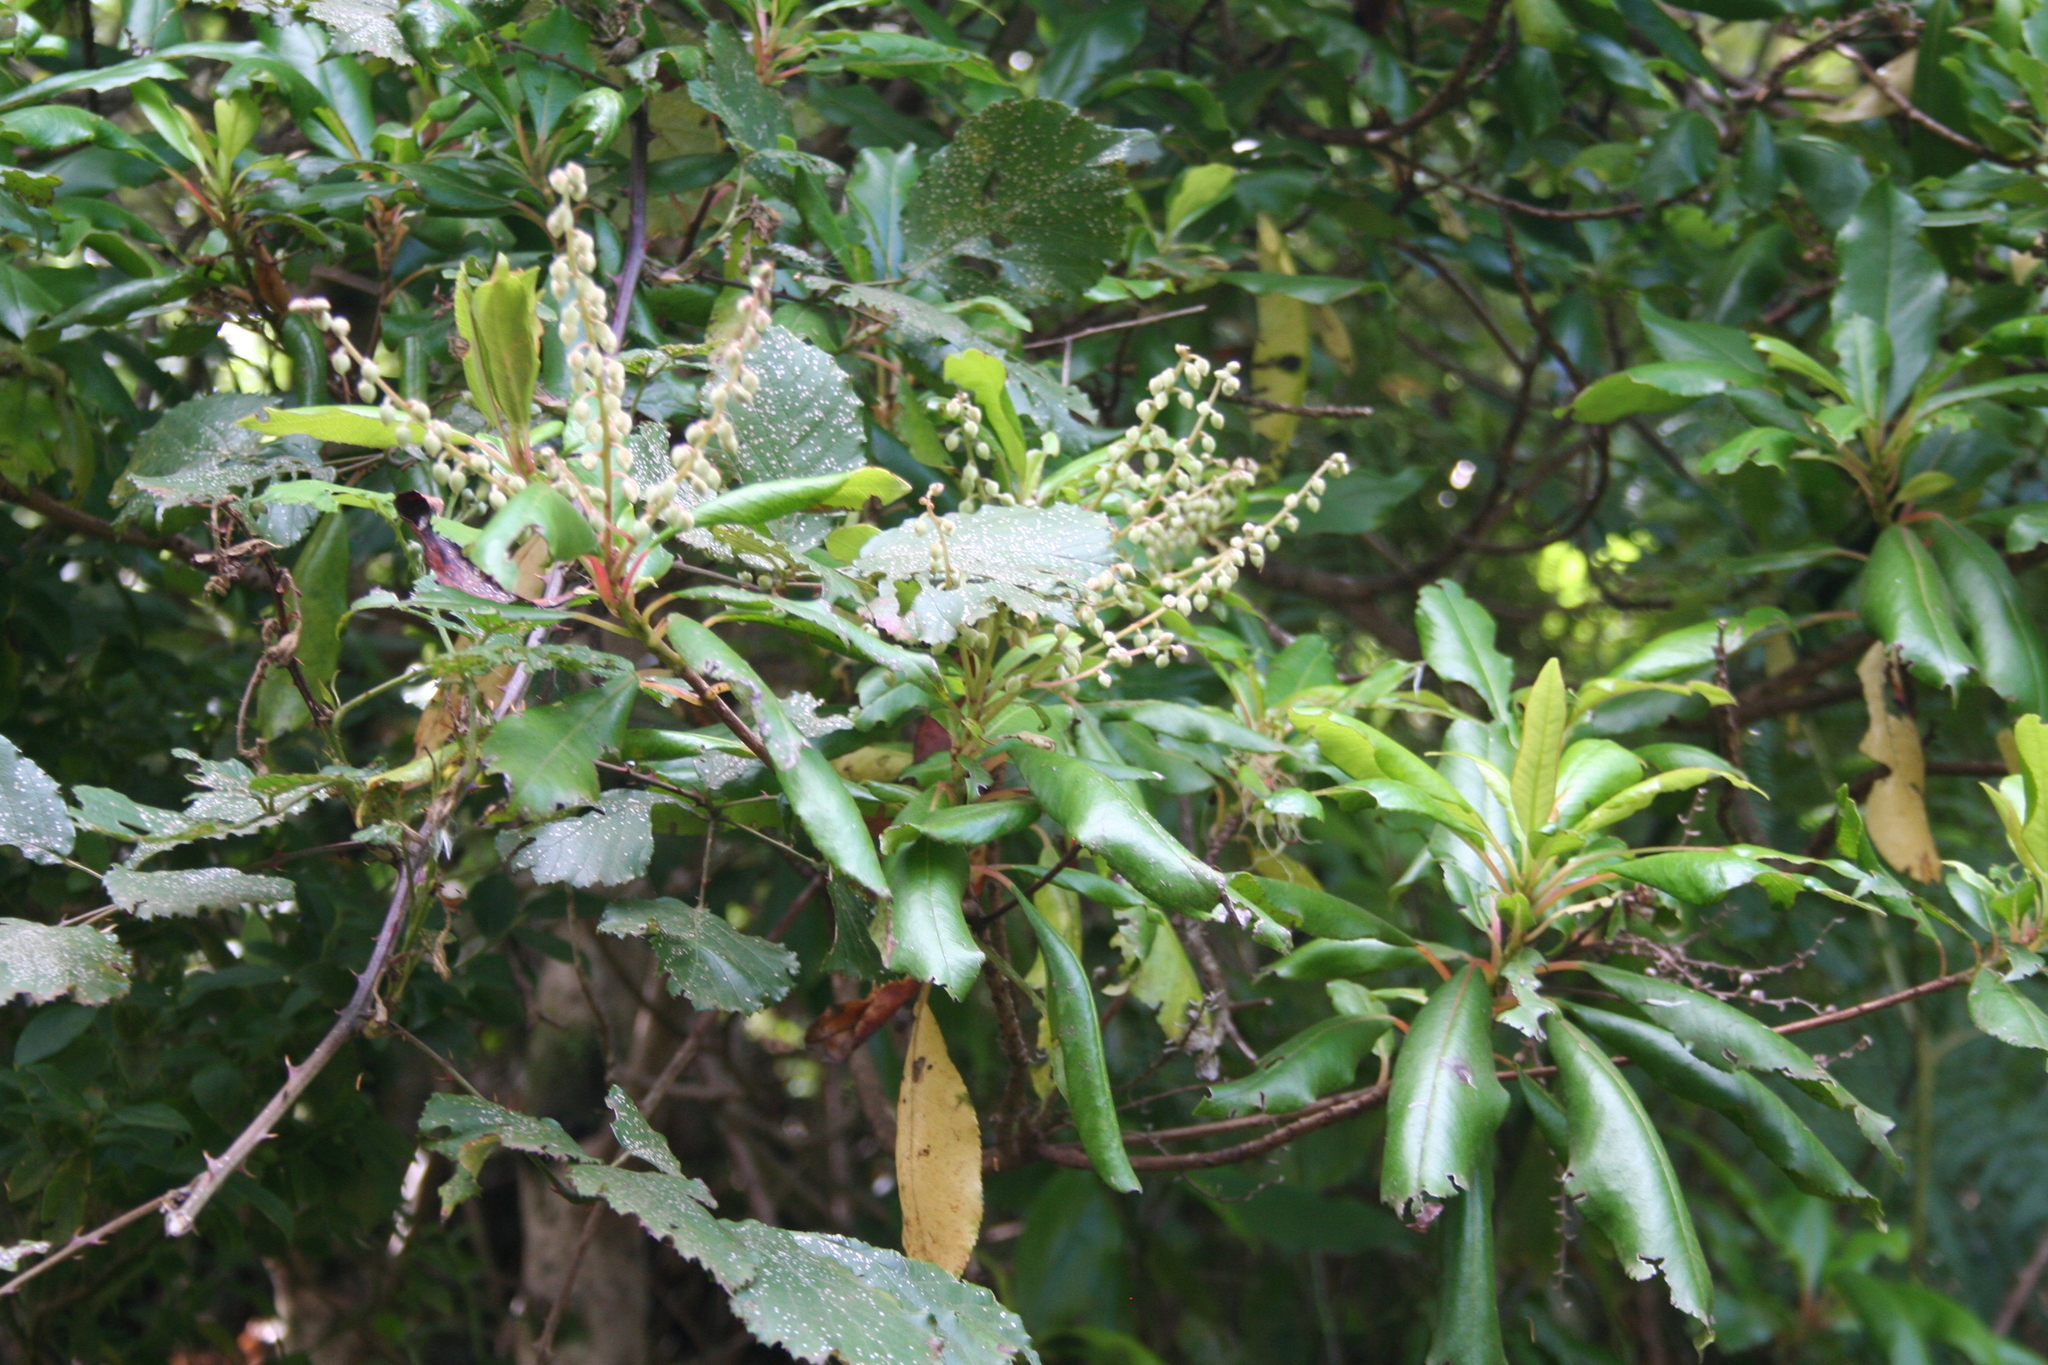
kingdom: Plantae
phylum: Tracheophyta
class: Magnoliopsida
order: Ericales
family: Clethraceae
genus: Clethra
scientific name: Clethra arborea
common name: Lily-of-the-valley-tree
